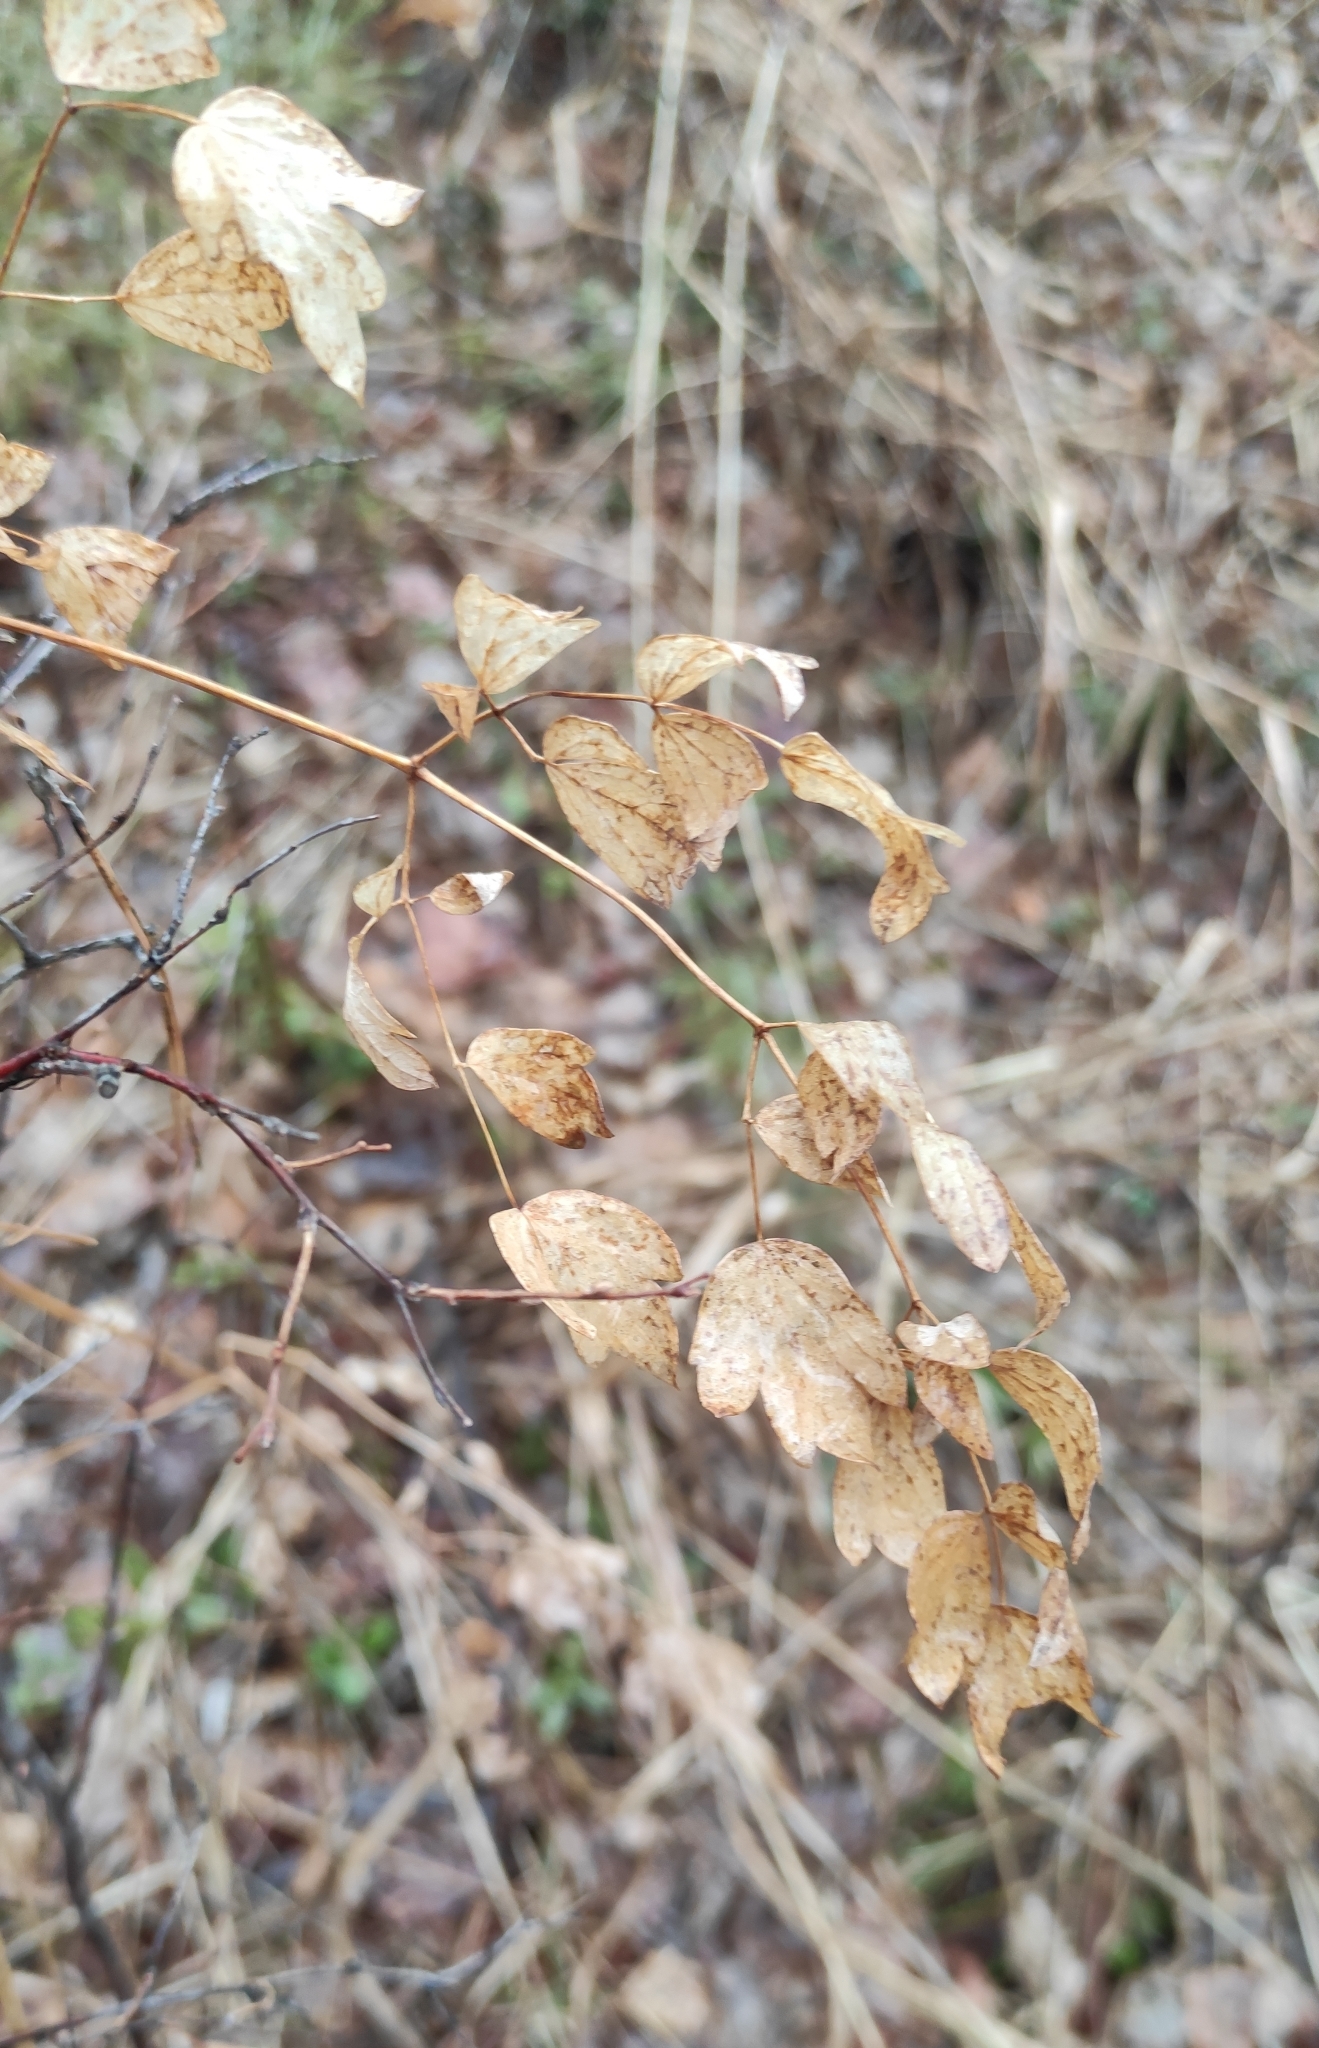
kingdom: Plantae
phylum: Tracheophyta
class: Magnoliopsida
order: Ranunculales
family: Ranunculaceae
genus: Thalictrum
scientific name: Thalictrum minus
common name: Lesser meadow-rue
